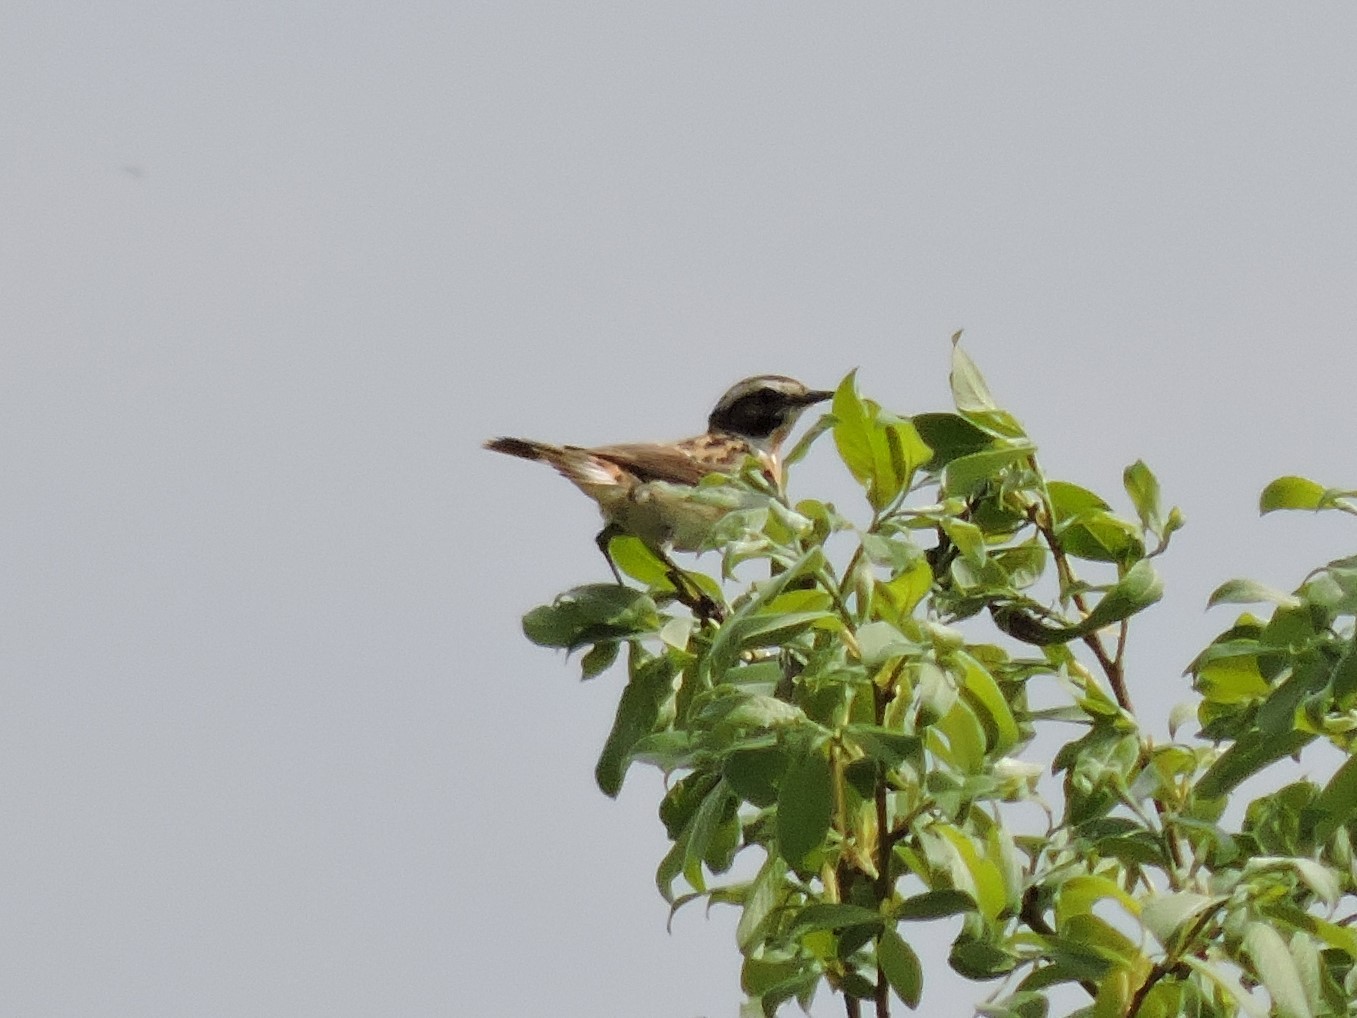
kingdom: Animalia
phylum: Chordata
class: Aves
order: Passeriformes
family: Muscicapidae
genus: Saxicola
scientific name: Saxicola rubetra
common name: Whinchat
